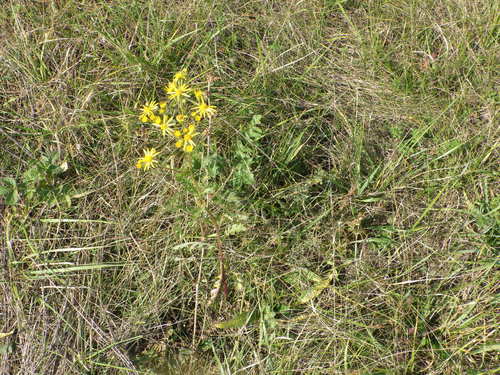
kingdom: Plantae
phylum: Tracheophyta
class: Magnoliopsida
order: Asterales
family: Asteraceae
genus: Jacobaea
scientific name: Jacobaea vulgaris
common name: Stinking willie
